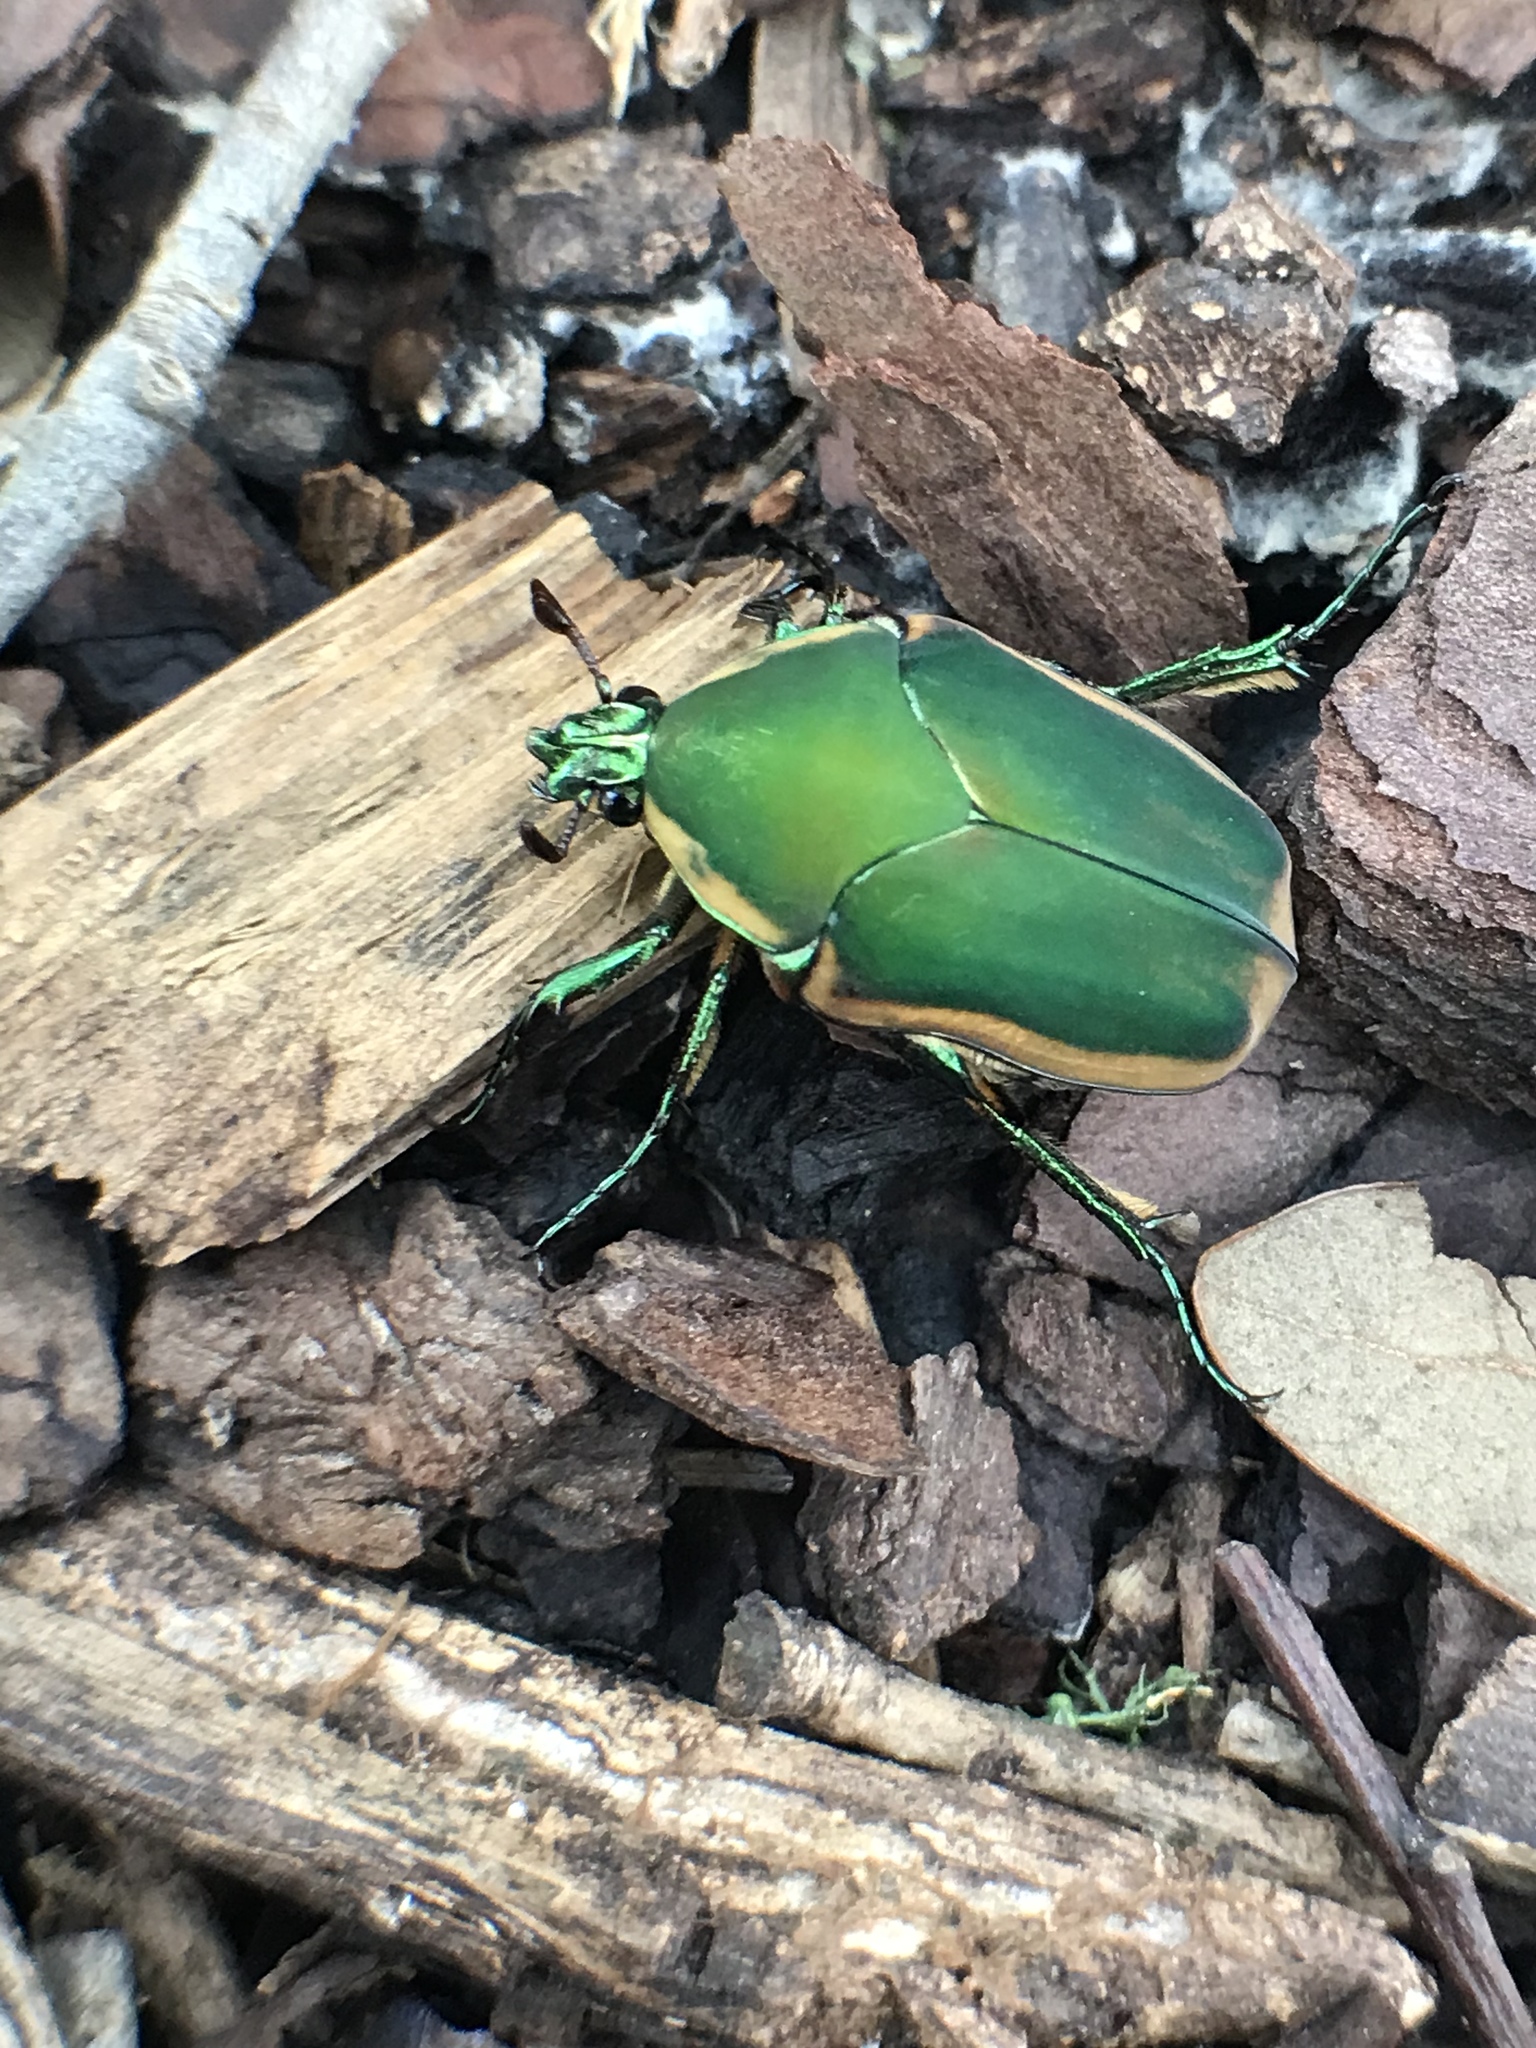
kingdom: Animalia
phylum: Arthropoda
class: Insecta
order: Coleoptera
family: Scarabaeidae
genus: Cotinis
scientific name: Cotinis nitida
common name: Common green june beetle
